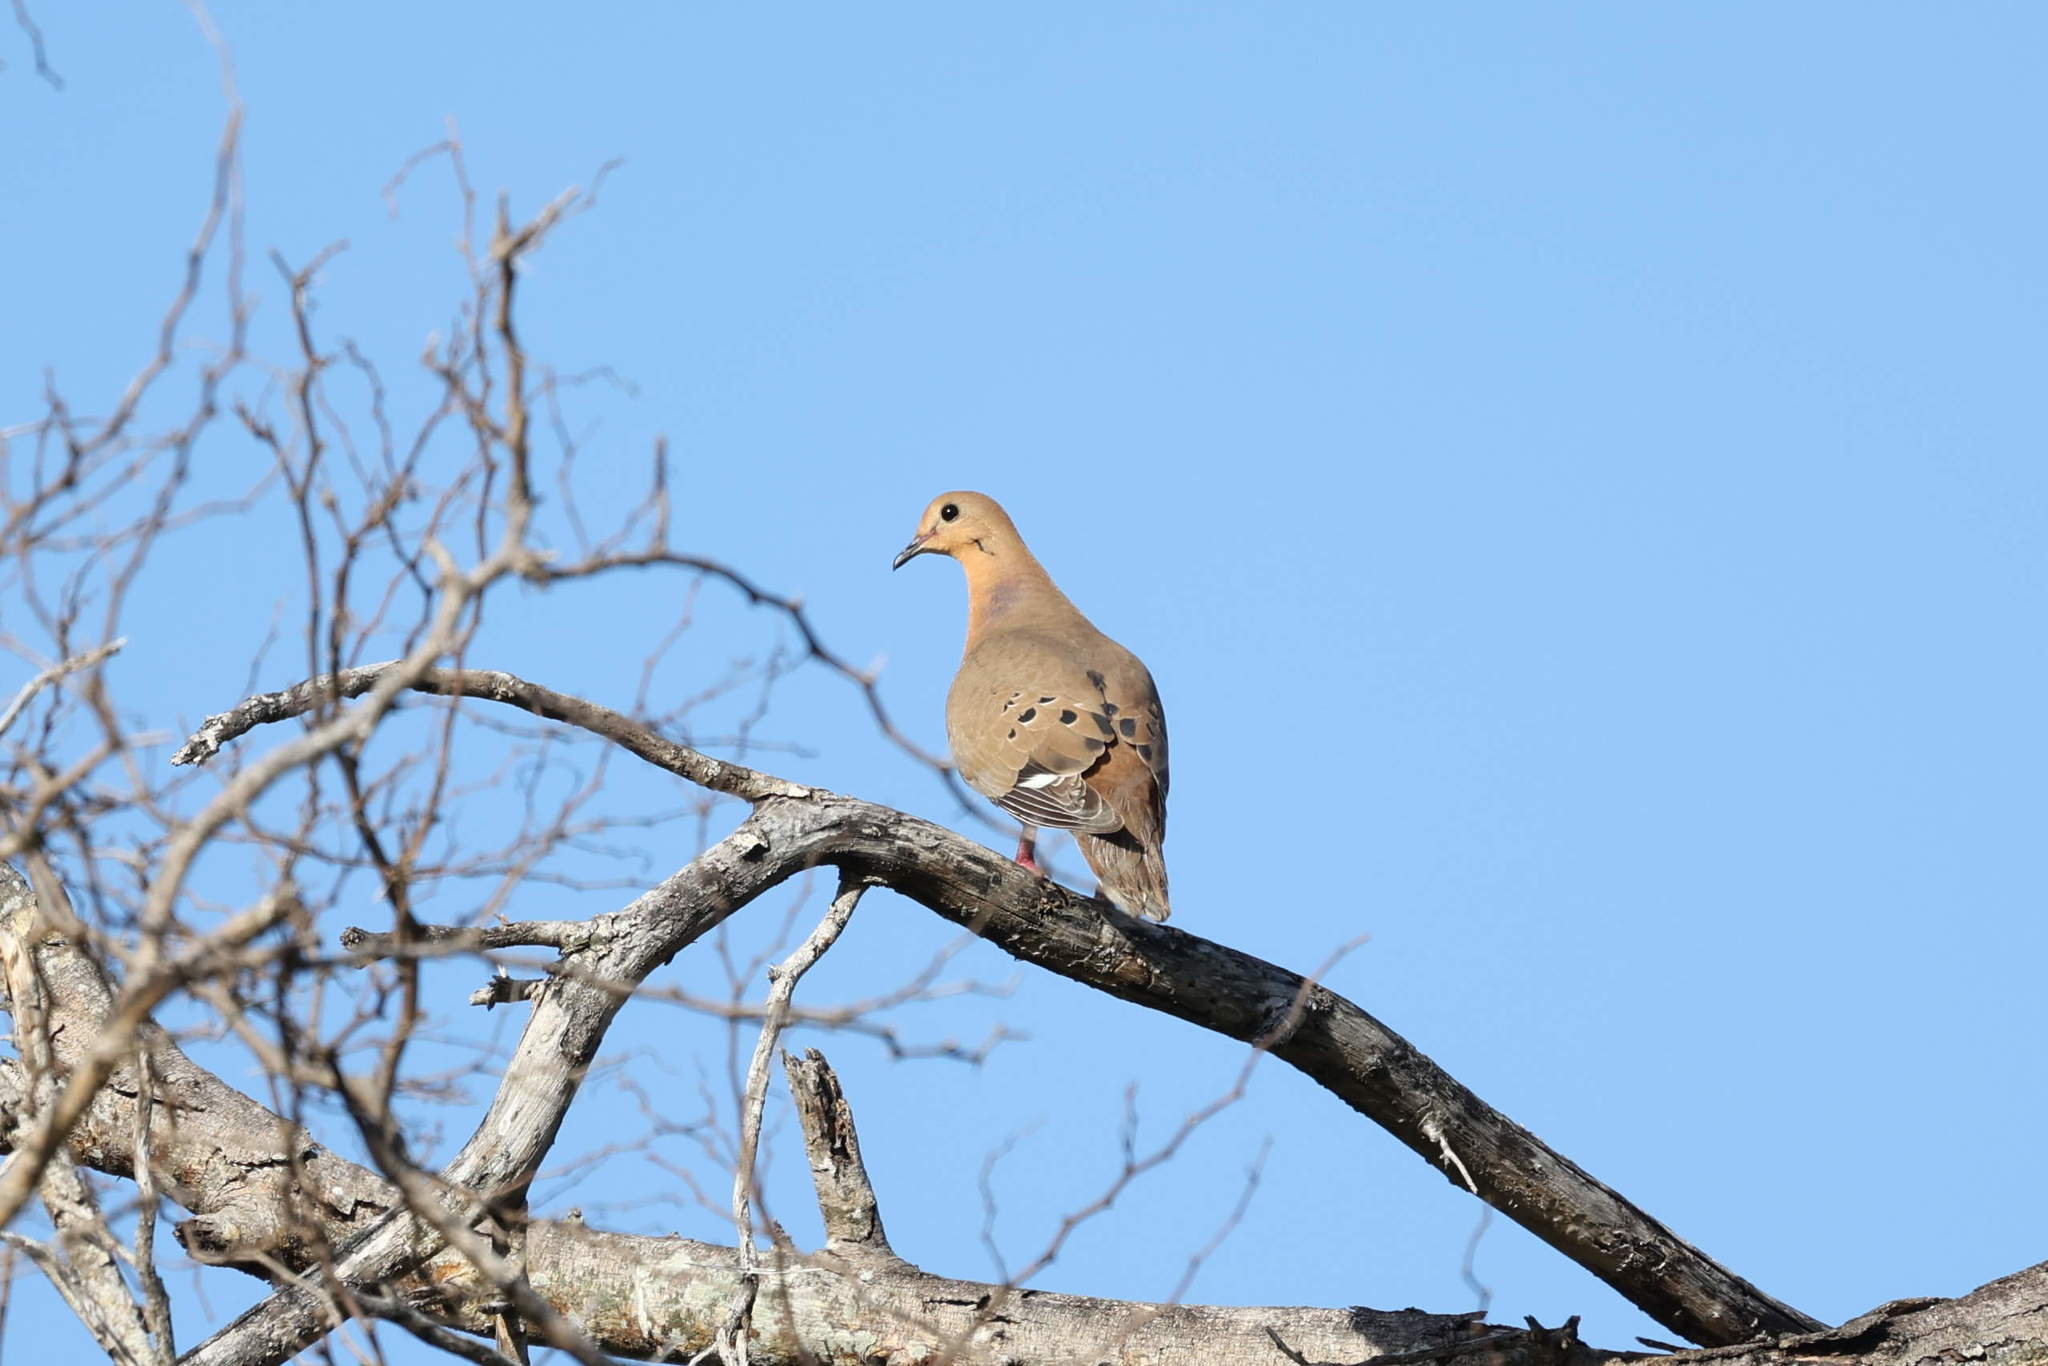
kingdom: Animalia
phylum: Chordata
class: Aves
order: Columbiformes
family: Columbidae
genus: Zenaida
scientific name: Zenaida aurita
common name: Zenaida dove
